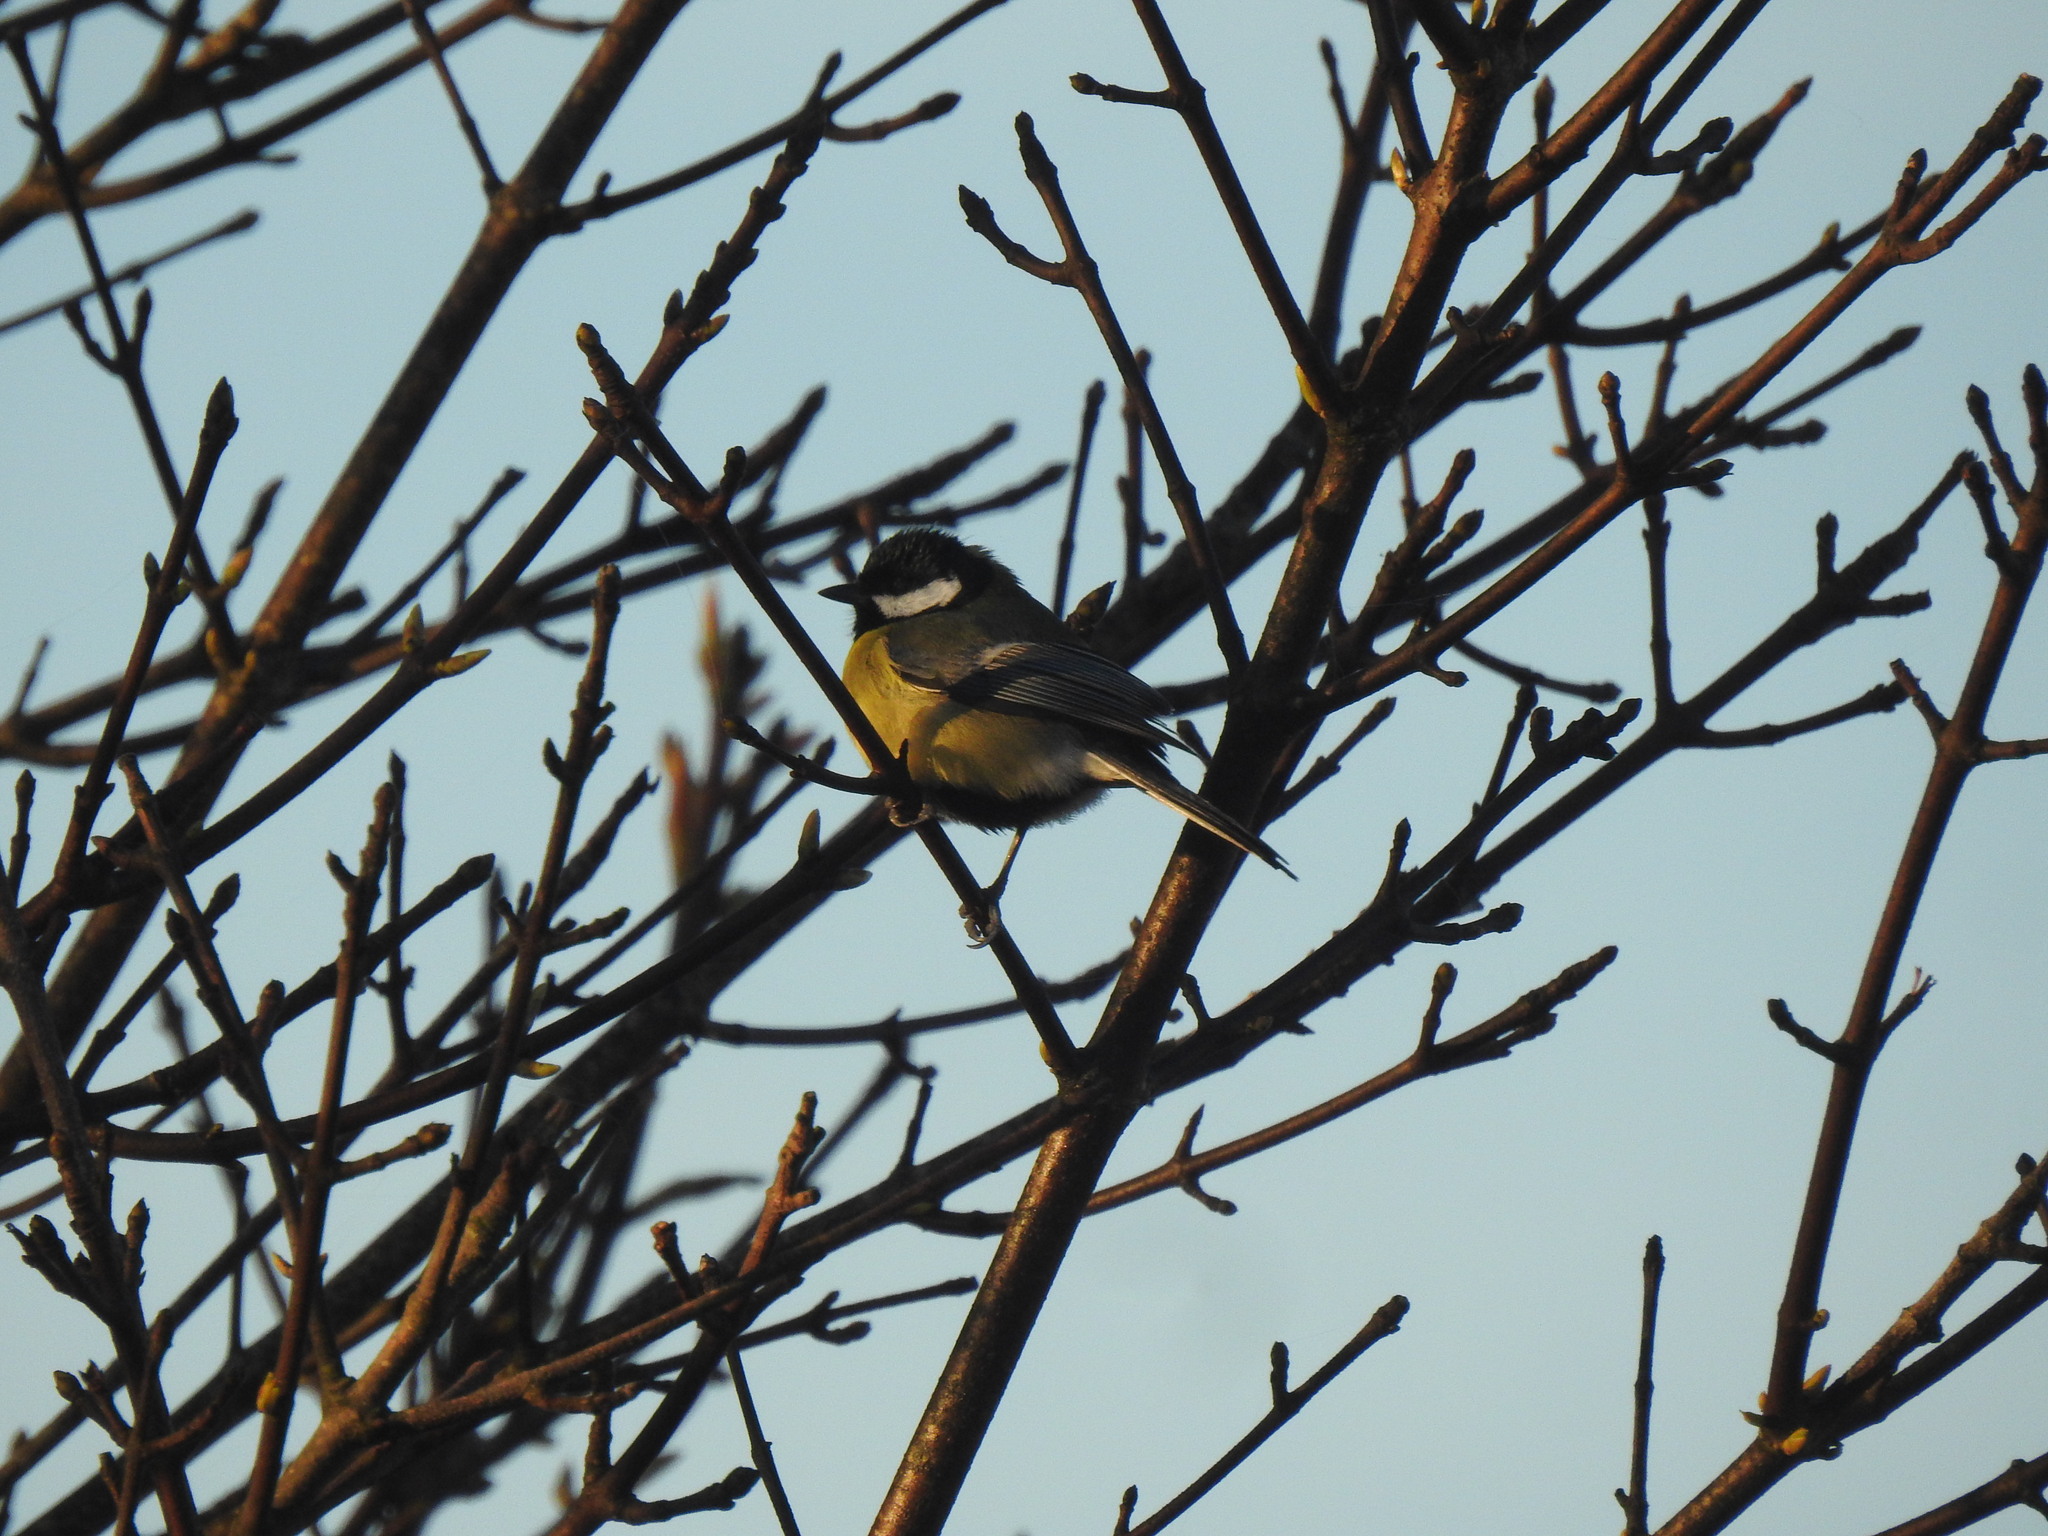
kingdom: Animalia
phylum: Chordata
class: Aves
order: Passeriformes
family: Paridae
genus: Parus
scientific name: Parus major
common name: Great tit
